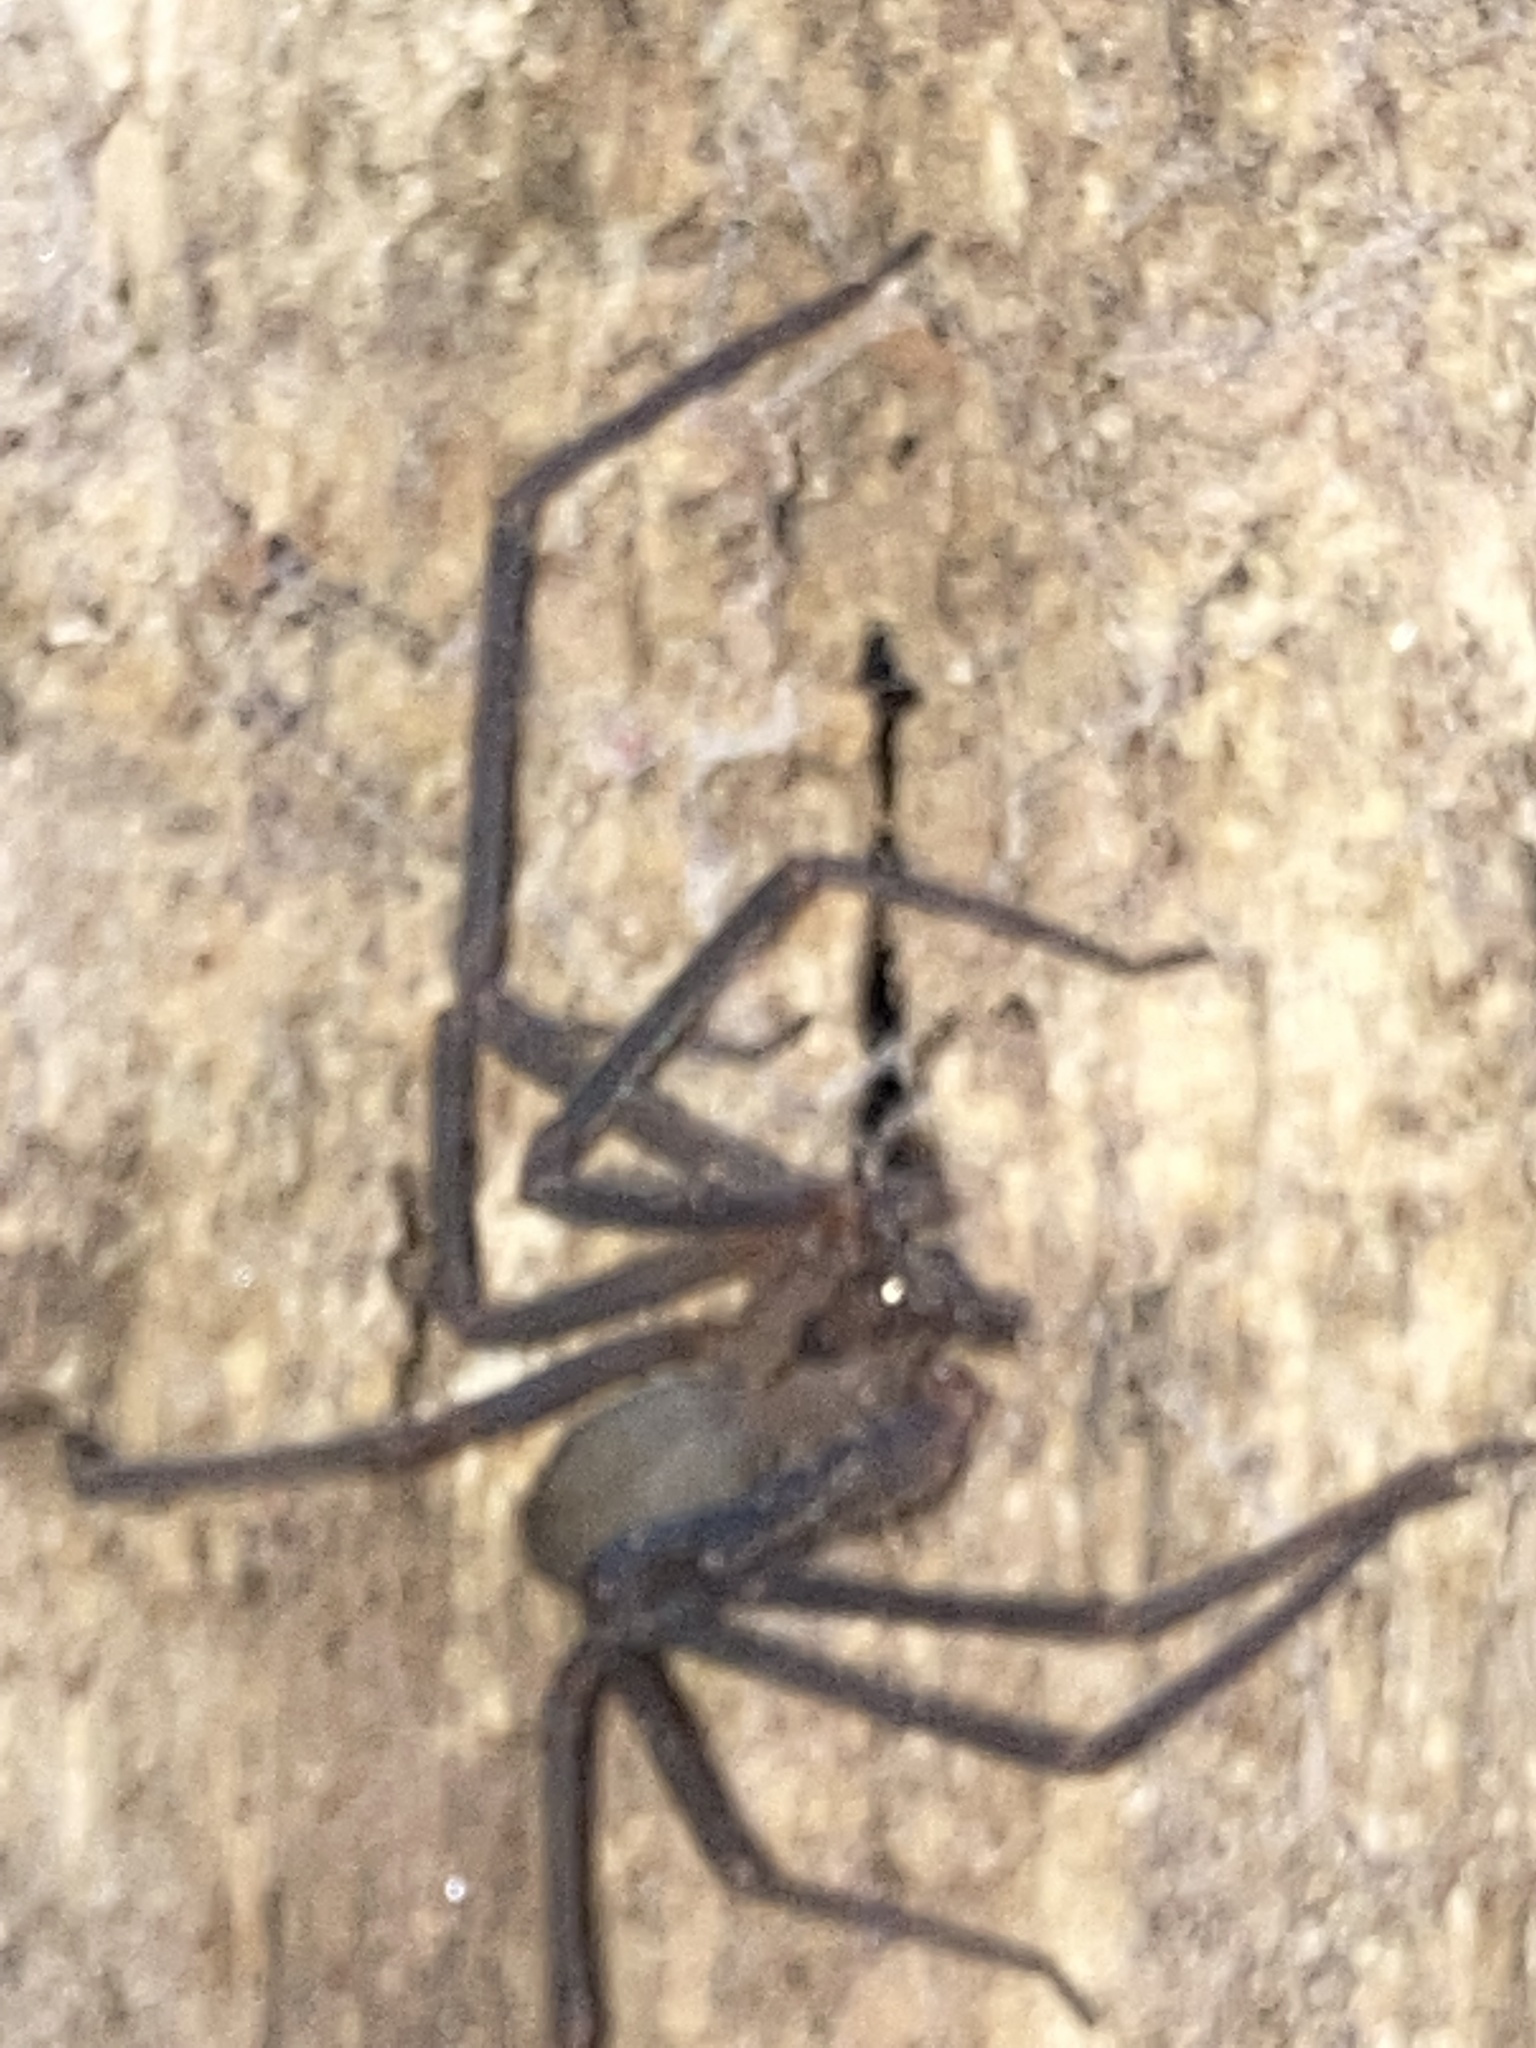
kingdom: Animalia
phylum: Arthropoda
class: Arachnida
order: Araneae
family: Sicariidae
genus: Loxosceles
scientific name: Loxosceles reclusa
